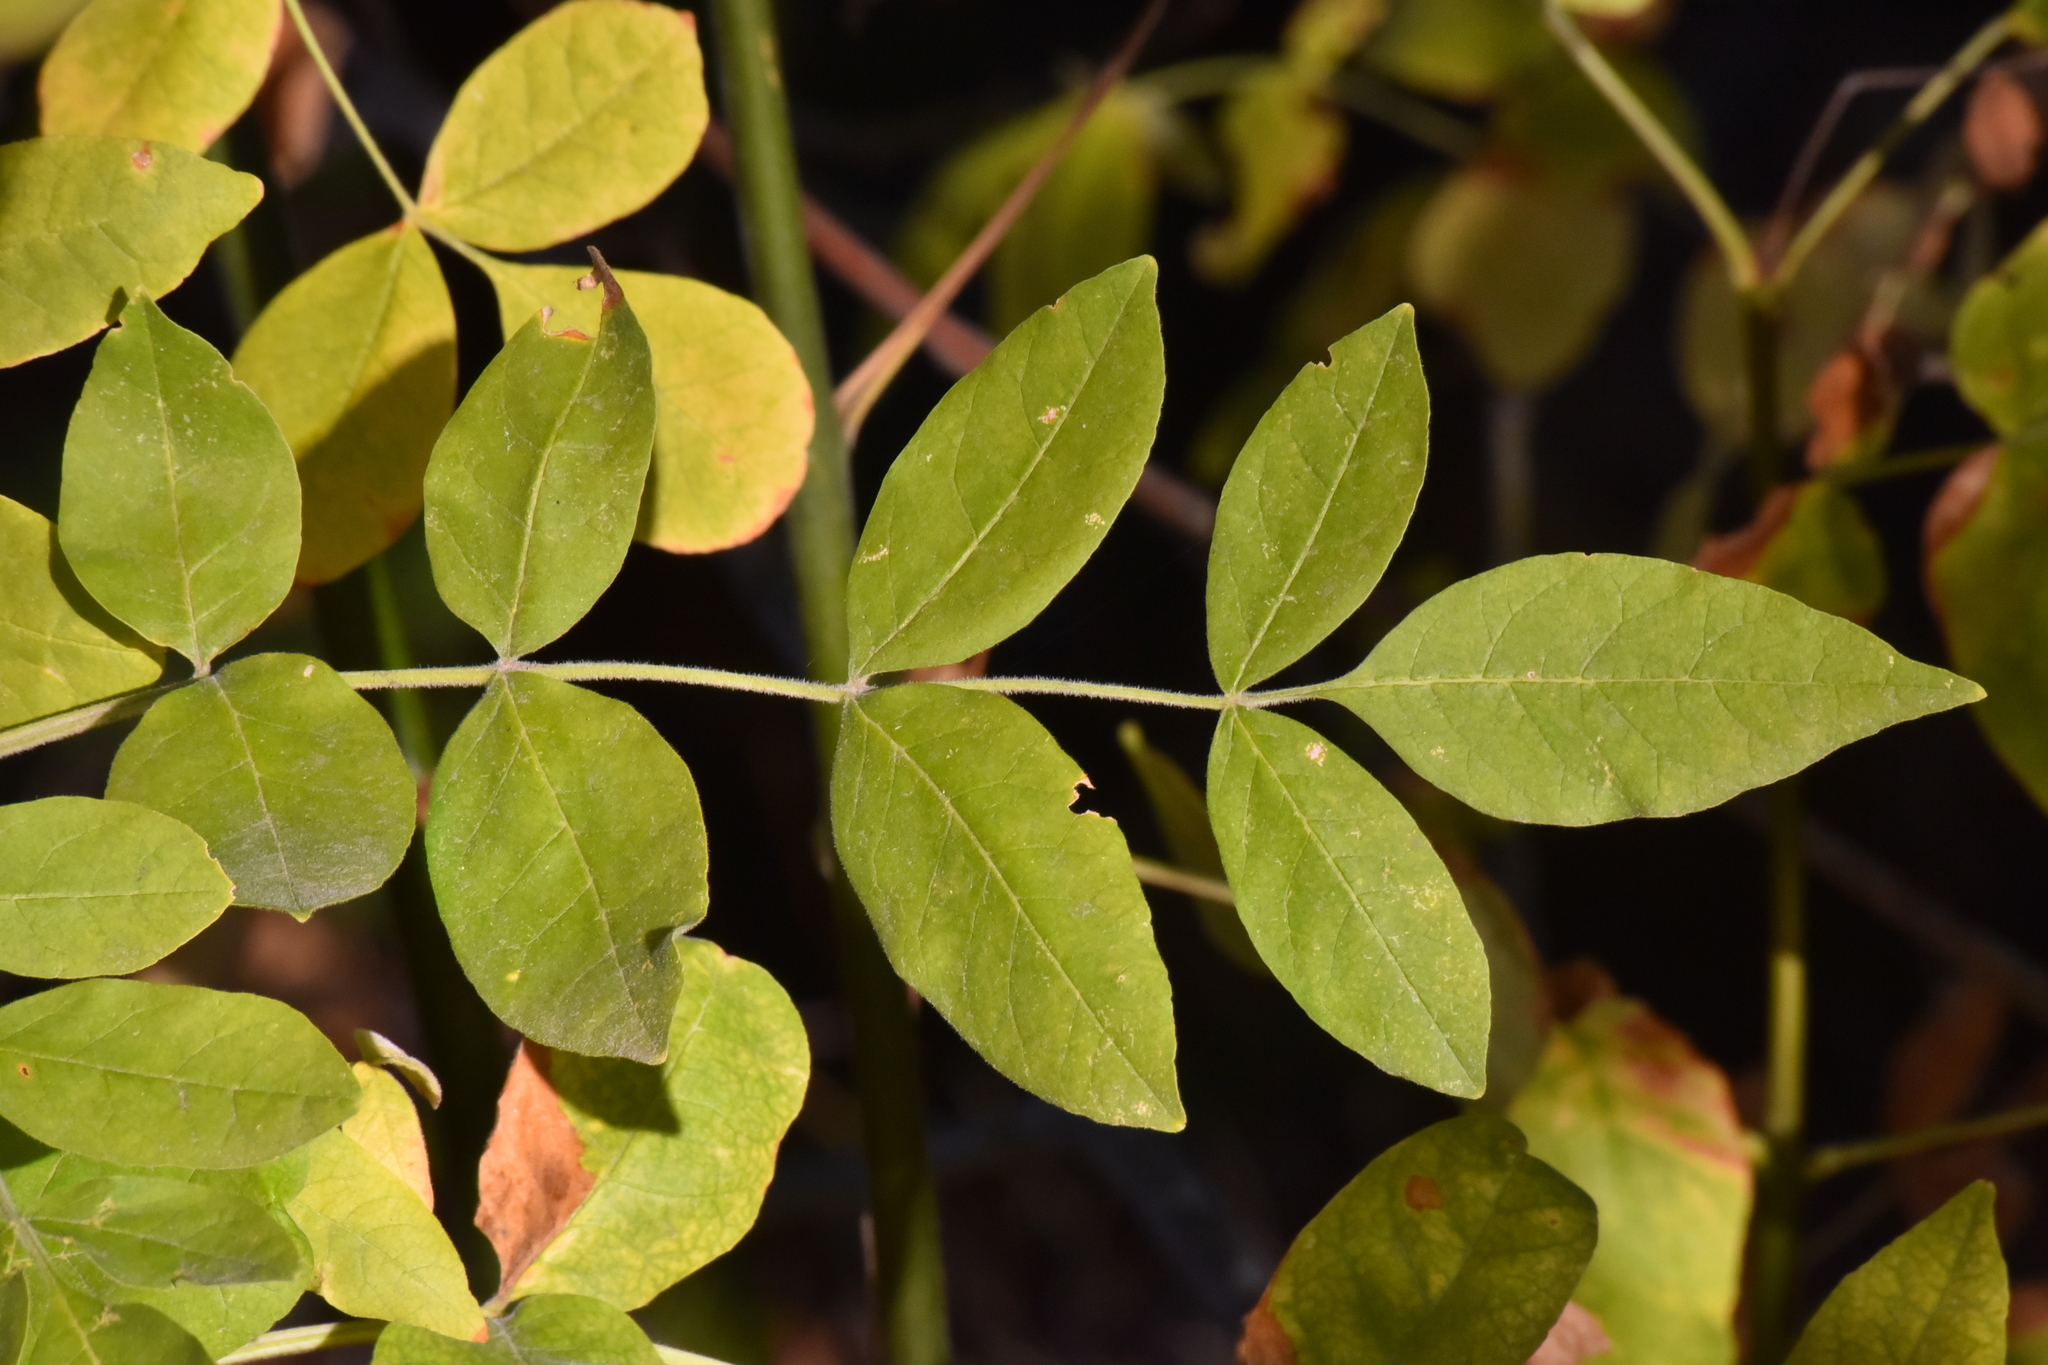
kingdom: Plantae
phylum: Tracheophyta
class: Magnoliopsida
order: Lamiales
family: Oleaceae
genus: Fraxinus
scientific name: Fraxinus latifolia
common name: Oregon ash
